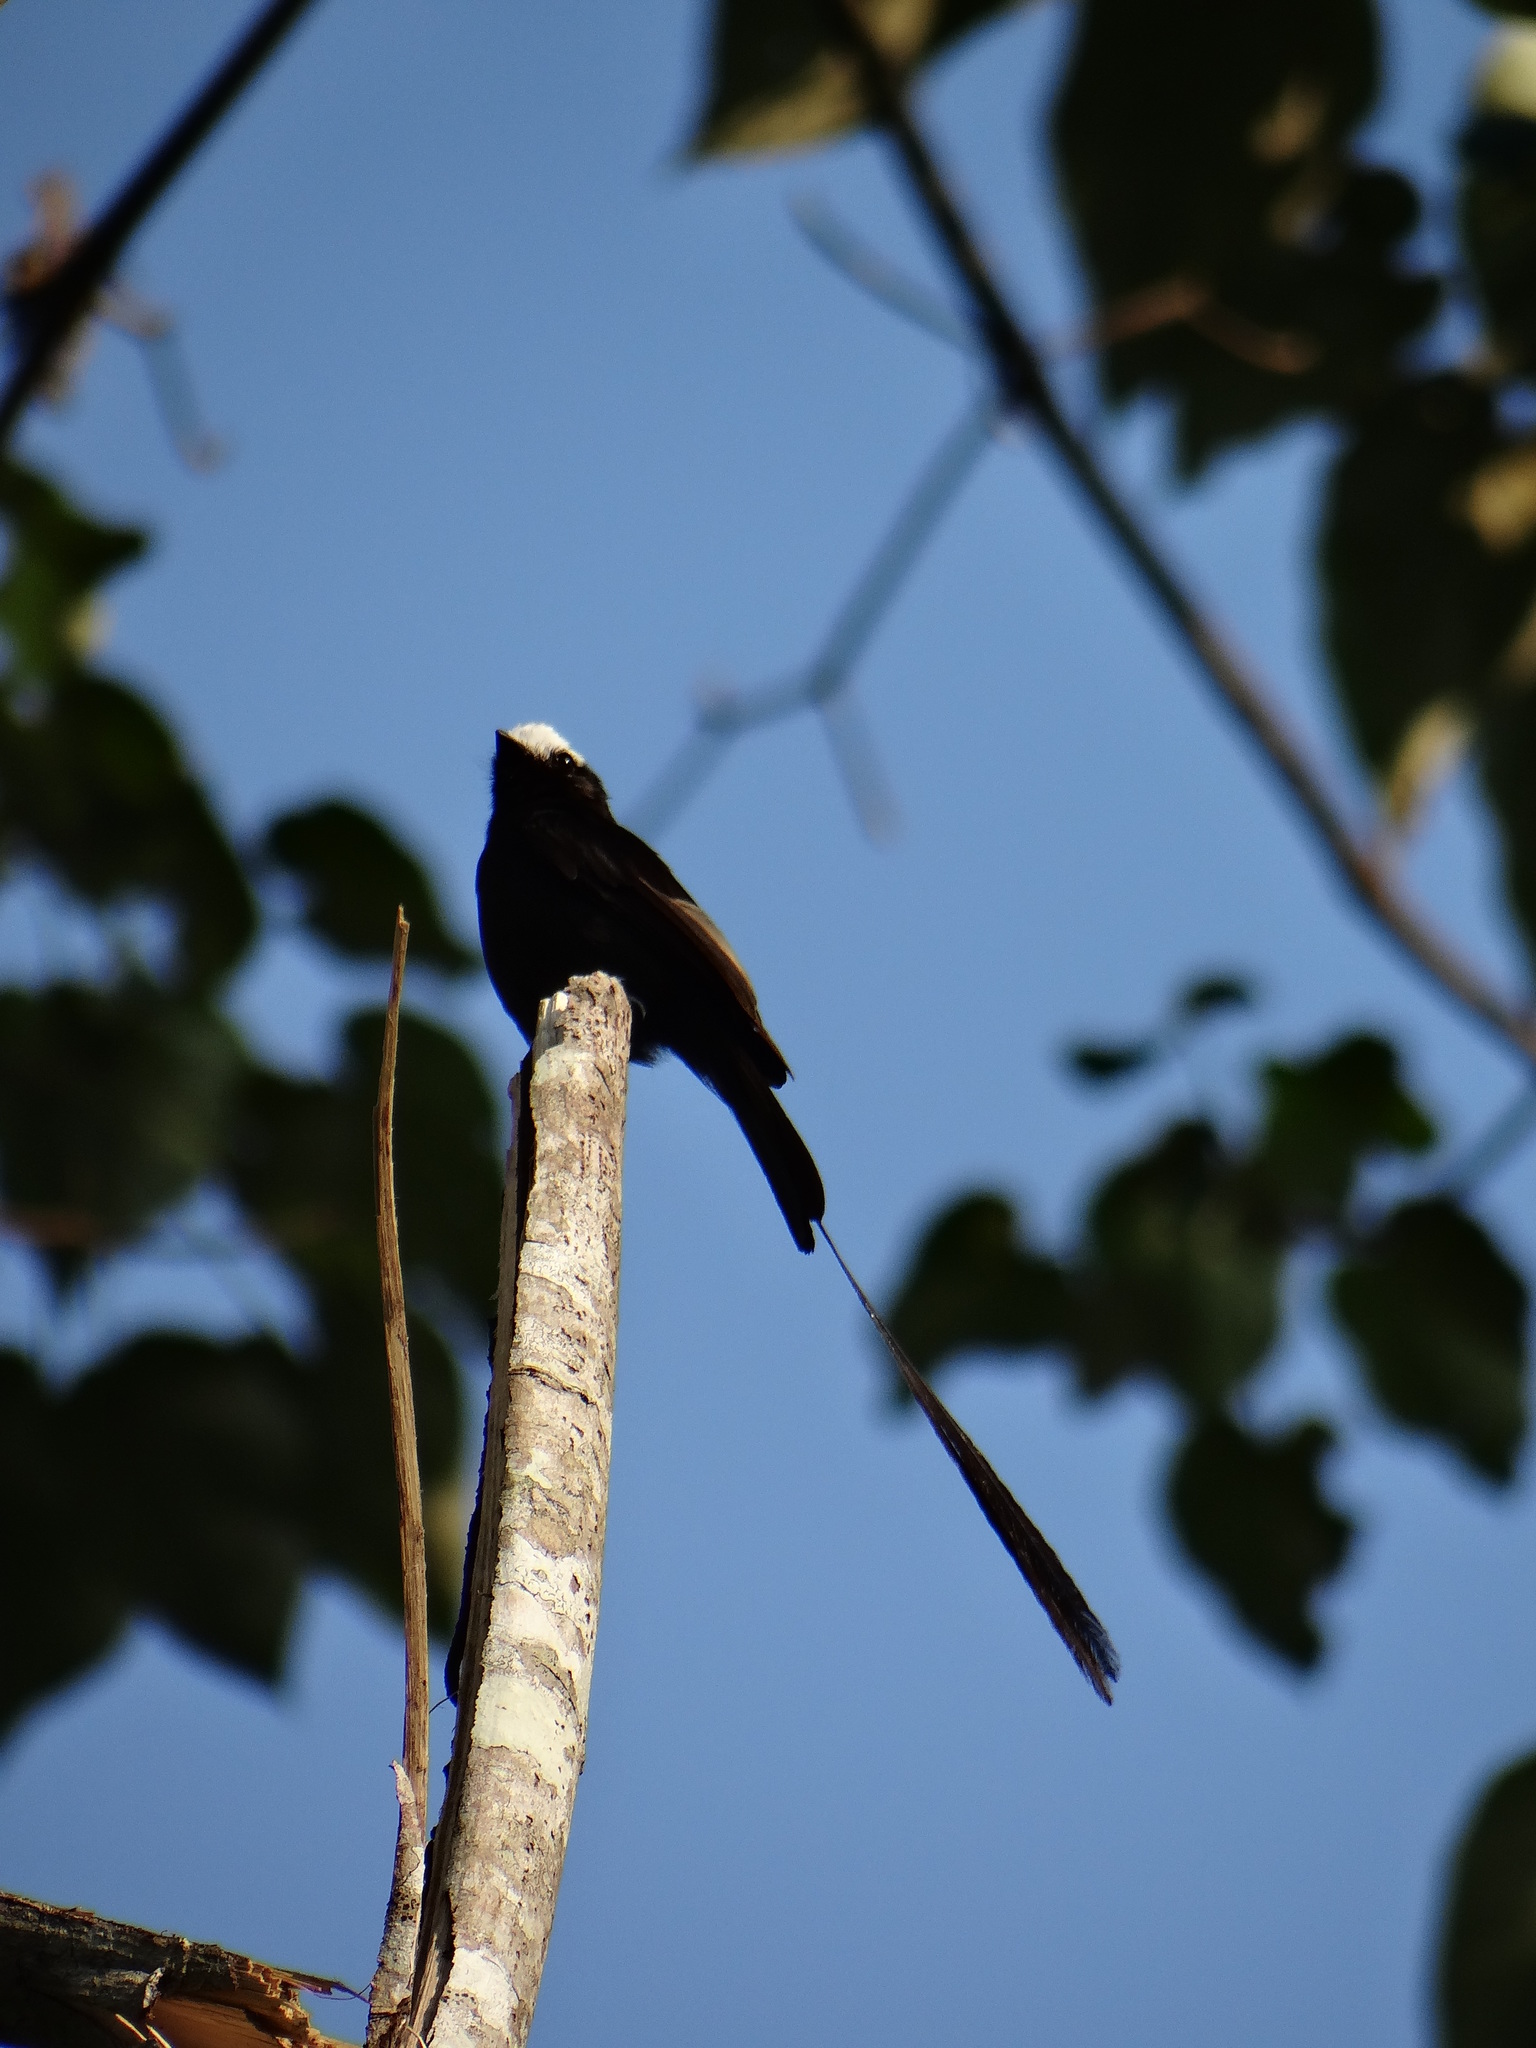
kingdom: Animalia
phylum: Chordata
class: Aves
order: Passeriformes
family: Tyrannidae
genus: Colonia
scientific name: Colonia colonus
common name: Long-tailed tyrant
